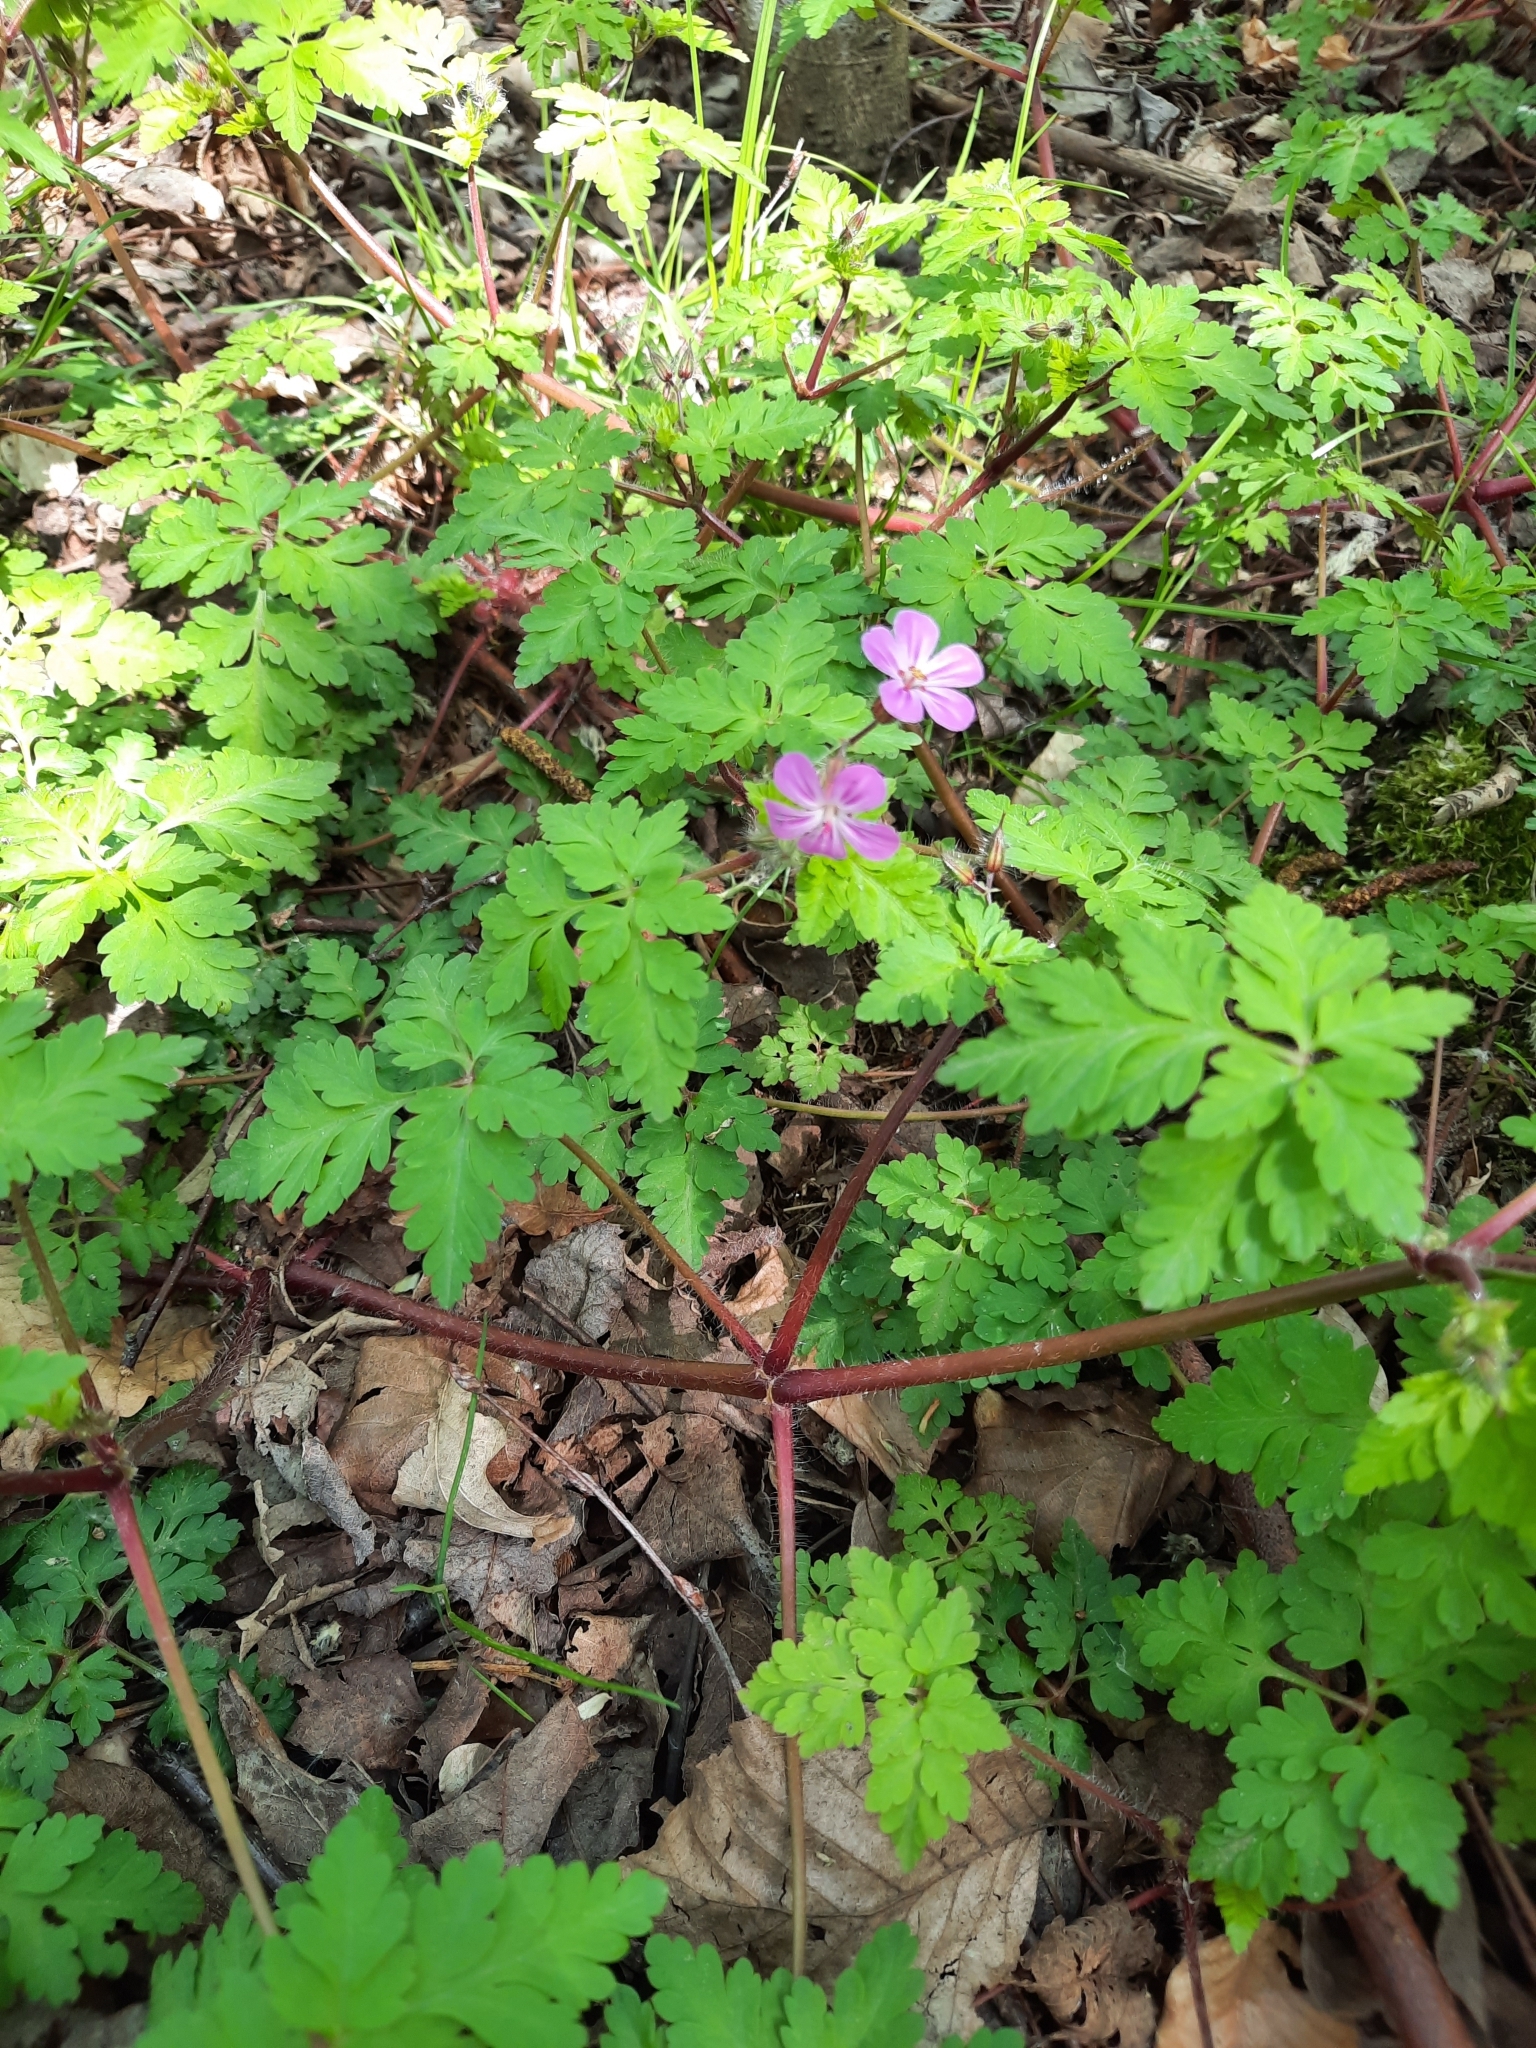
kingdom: Plantae
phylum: Tracheophyta
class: Magnoliopsida
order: Geraniales
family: Geraniaceae
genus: Geranium
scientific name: Geranium robertianum
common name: Herb-robert
